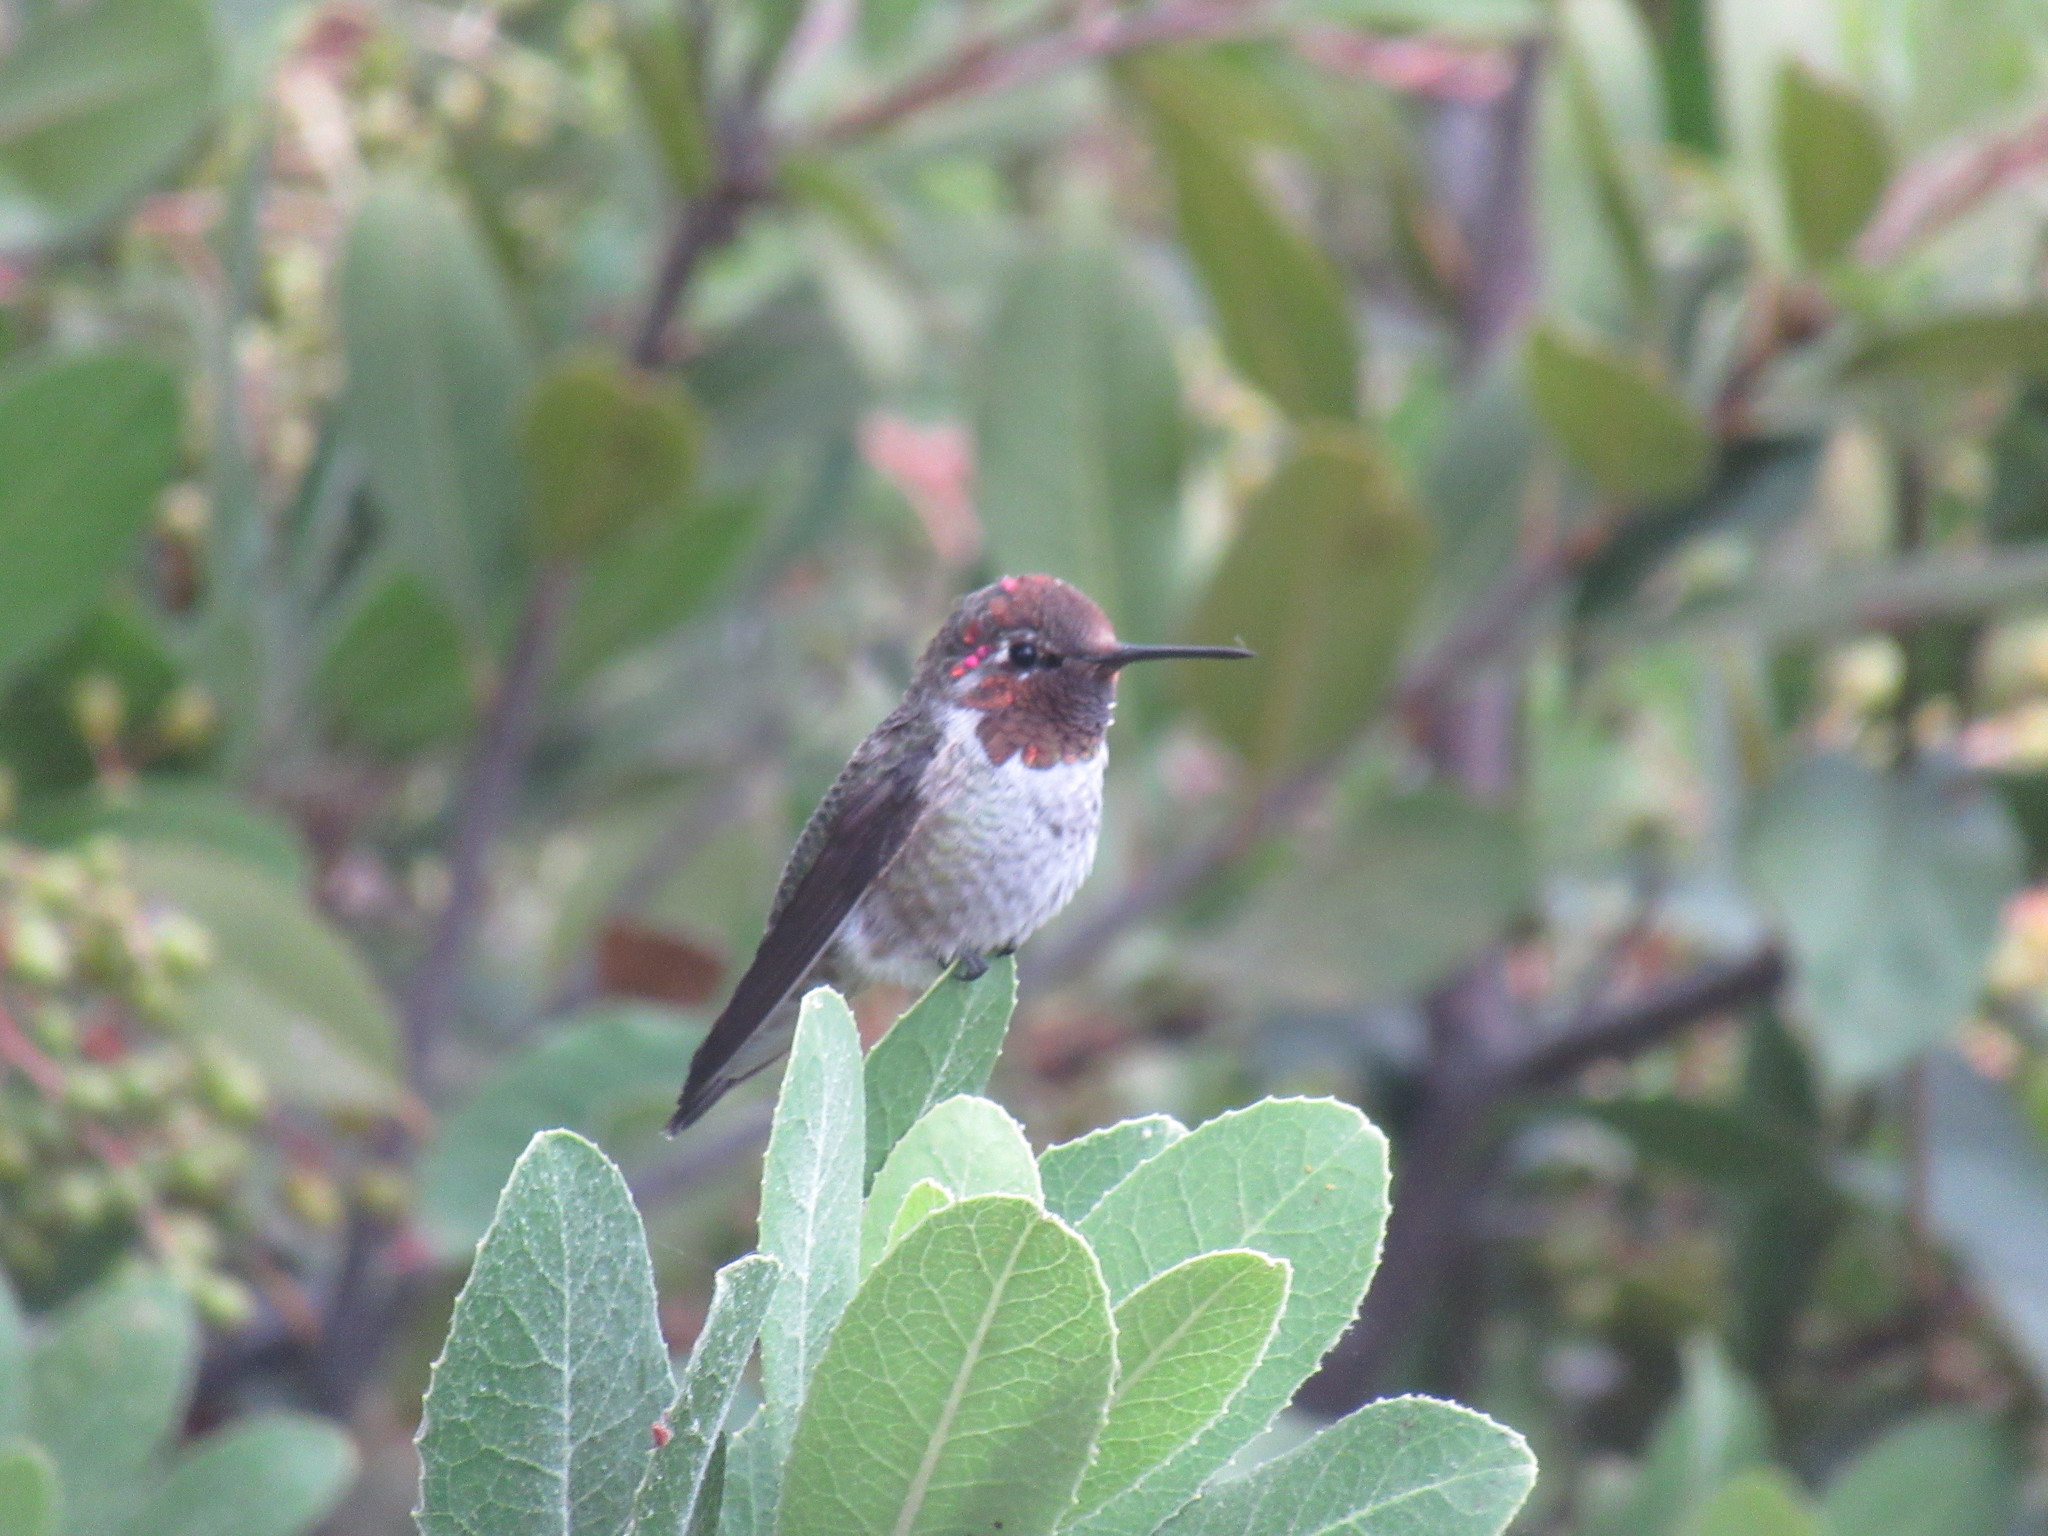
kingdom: Animalia
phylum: Chordata
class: Aves
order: Apodiformes
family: Trochilidae
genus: Calypte
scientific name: Calypte anna
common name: Anna's hummingbird
